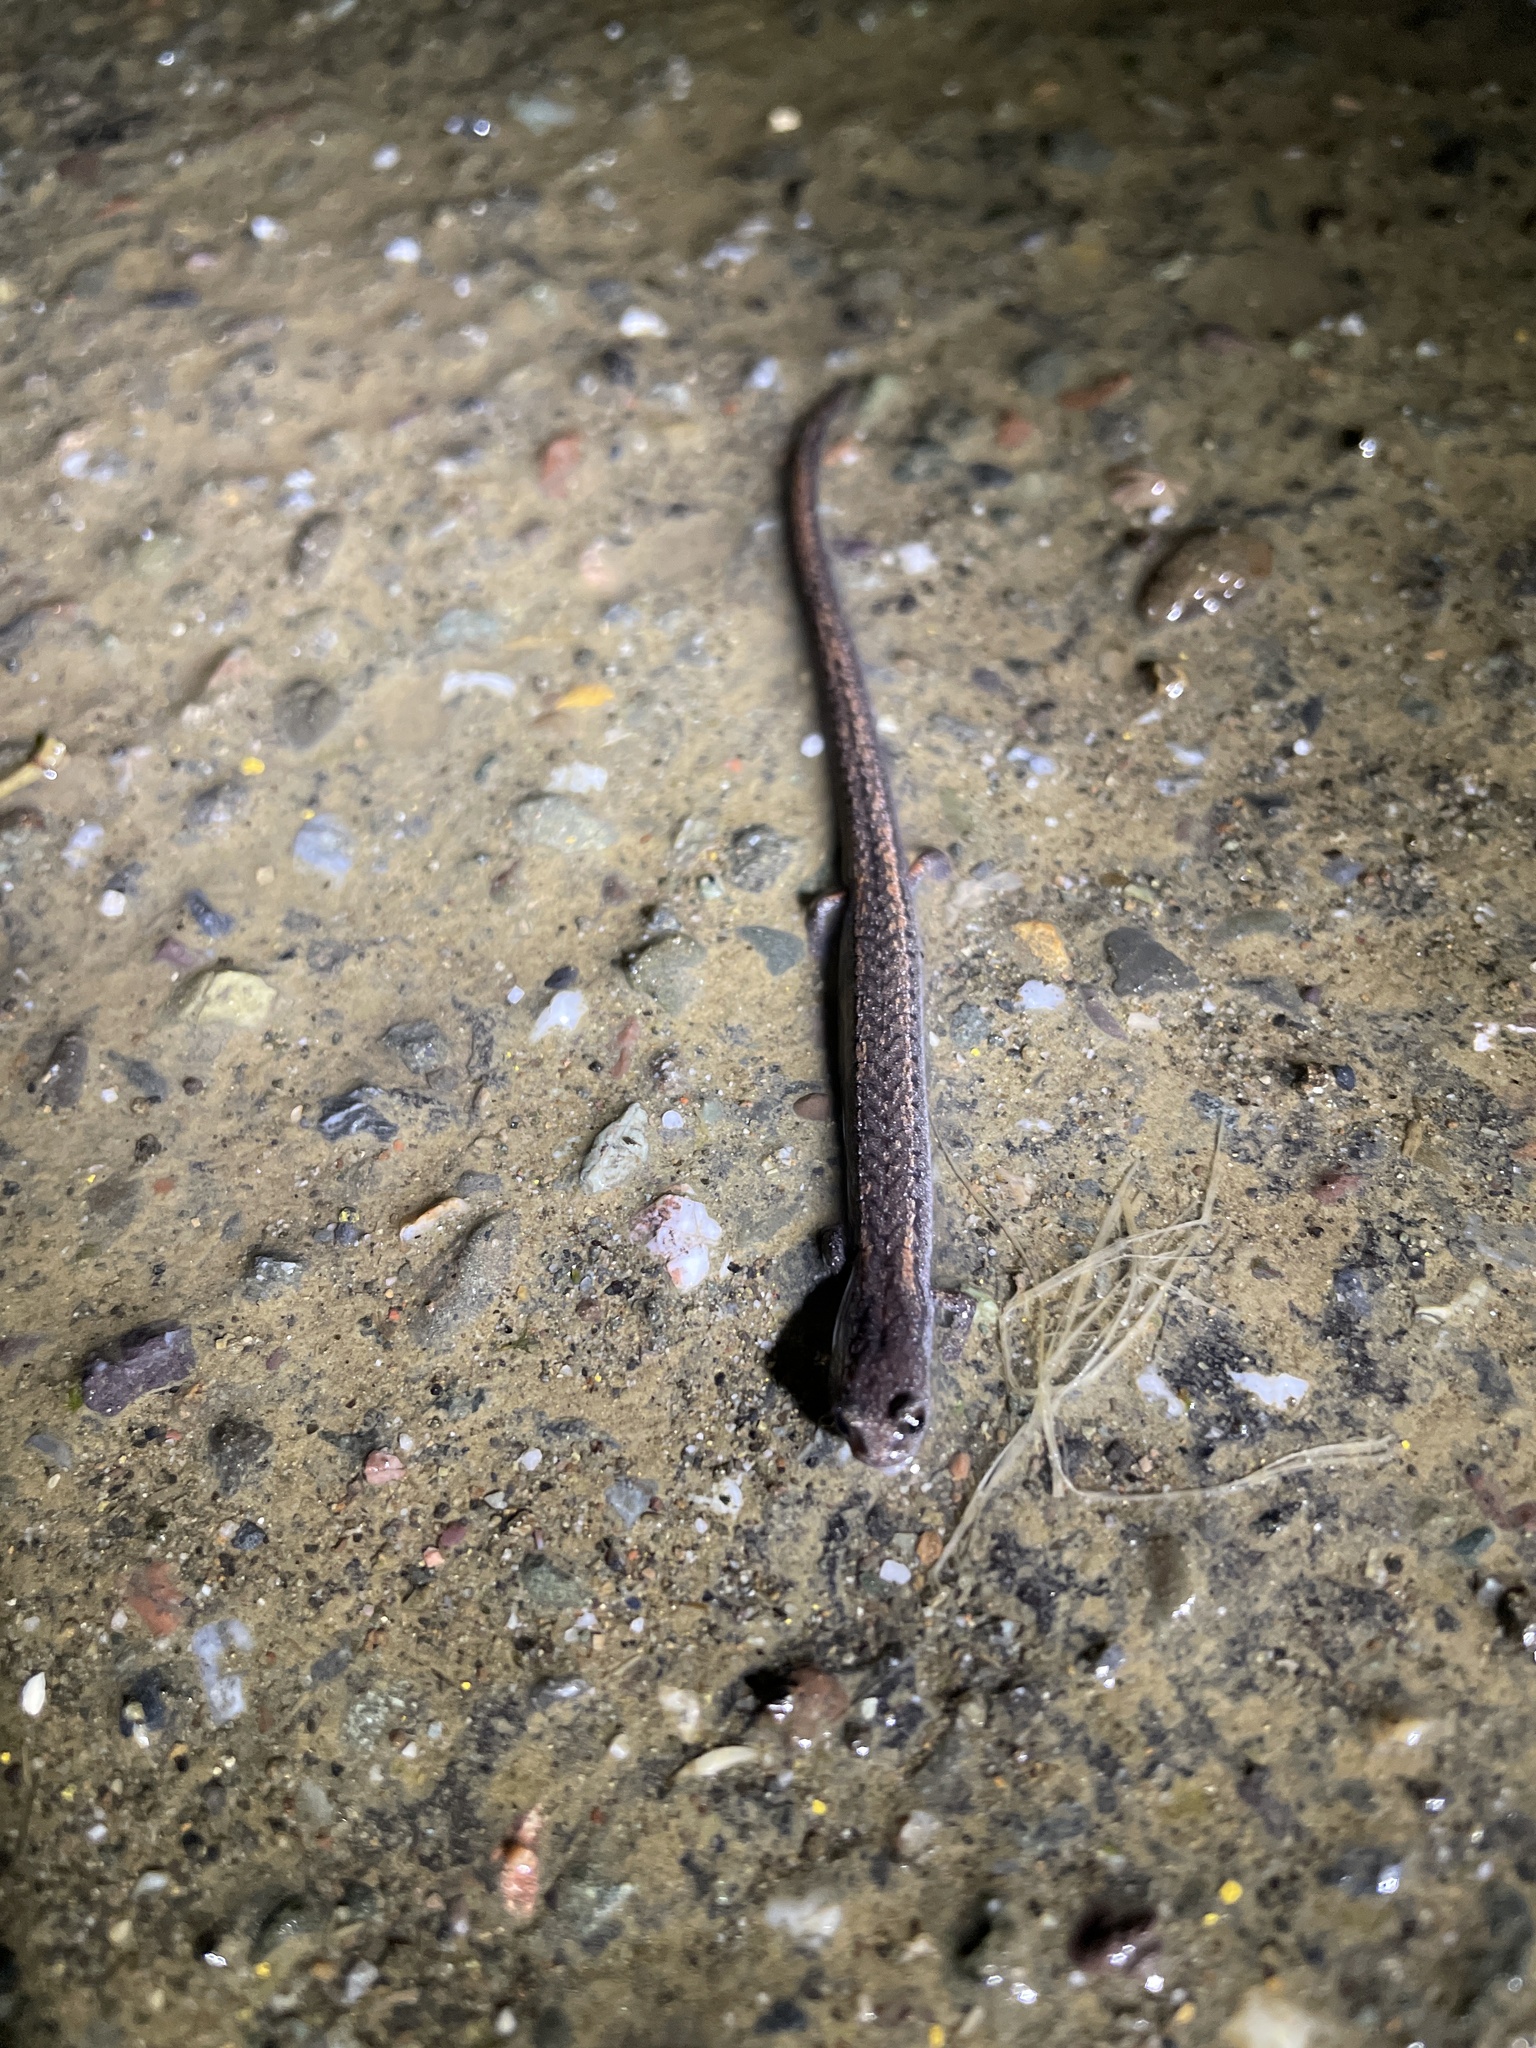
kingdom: Animalia
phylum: Chordata
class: Amphibia
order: Caudata
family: Plethodontidae
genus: Batrachoseps
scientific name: Batrachoseps attenuatus
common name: California slender salamander
